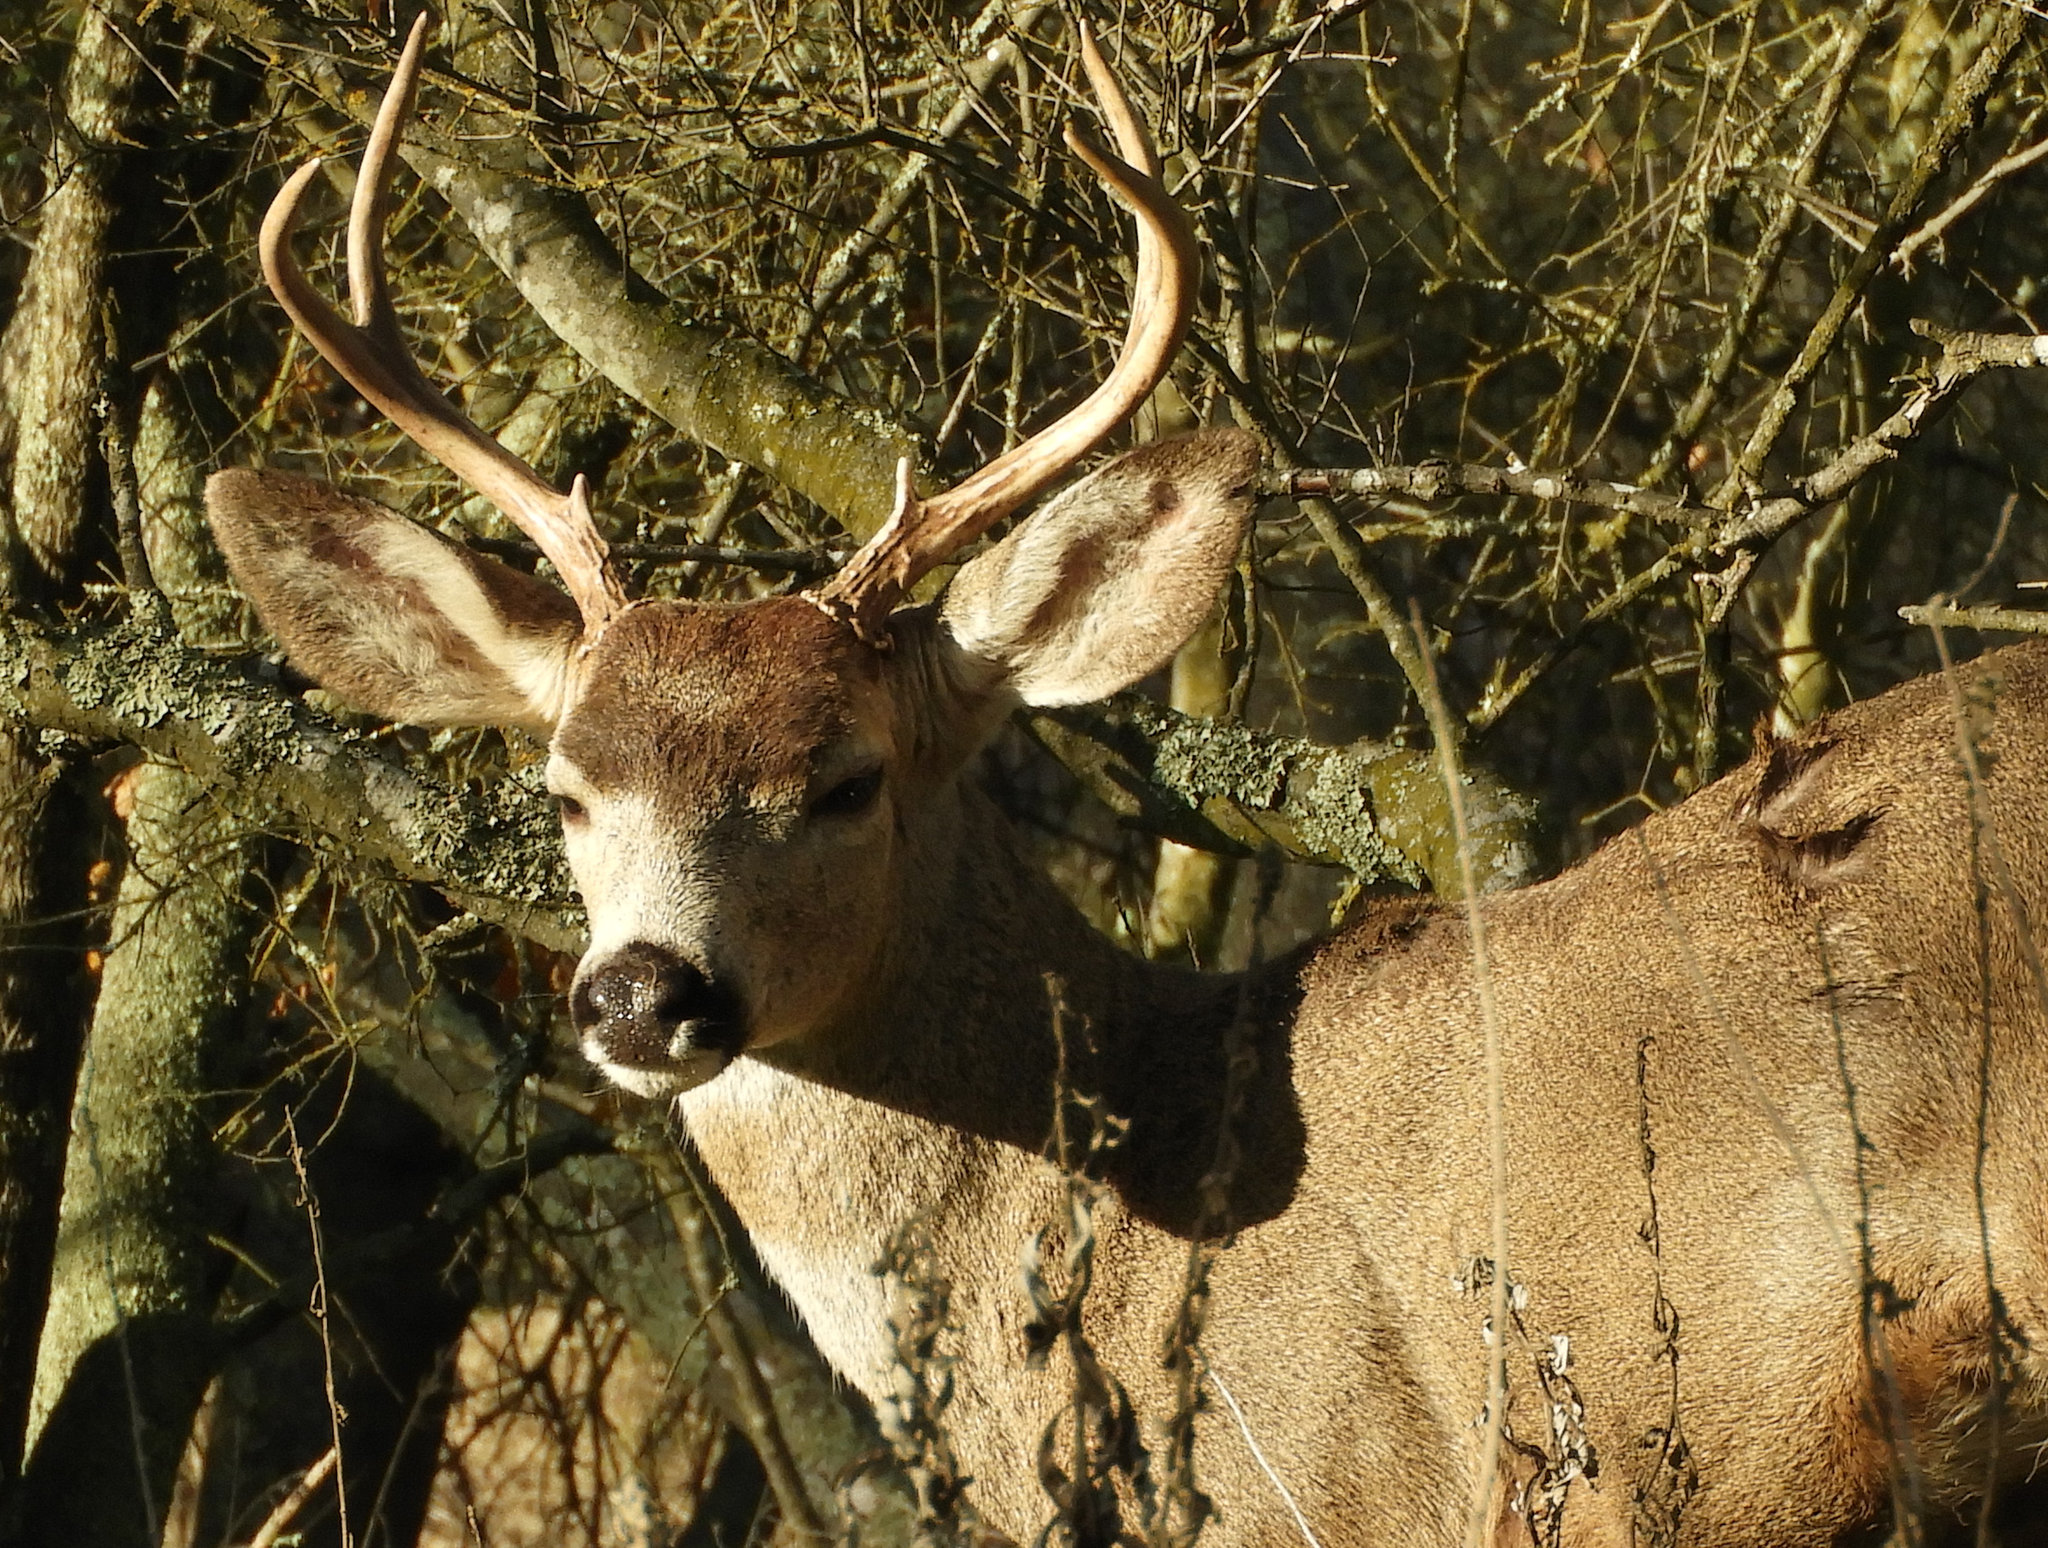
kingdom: Animalia
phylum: Chordata
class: Mammalia
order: Artiodactyla
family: Cervidae
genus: Odocoileus
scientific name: Odocoileus hemionus
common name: Mule deer
